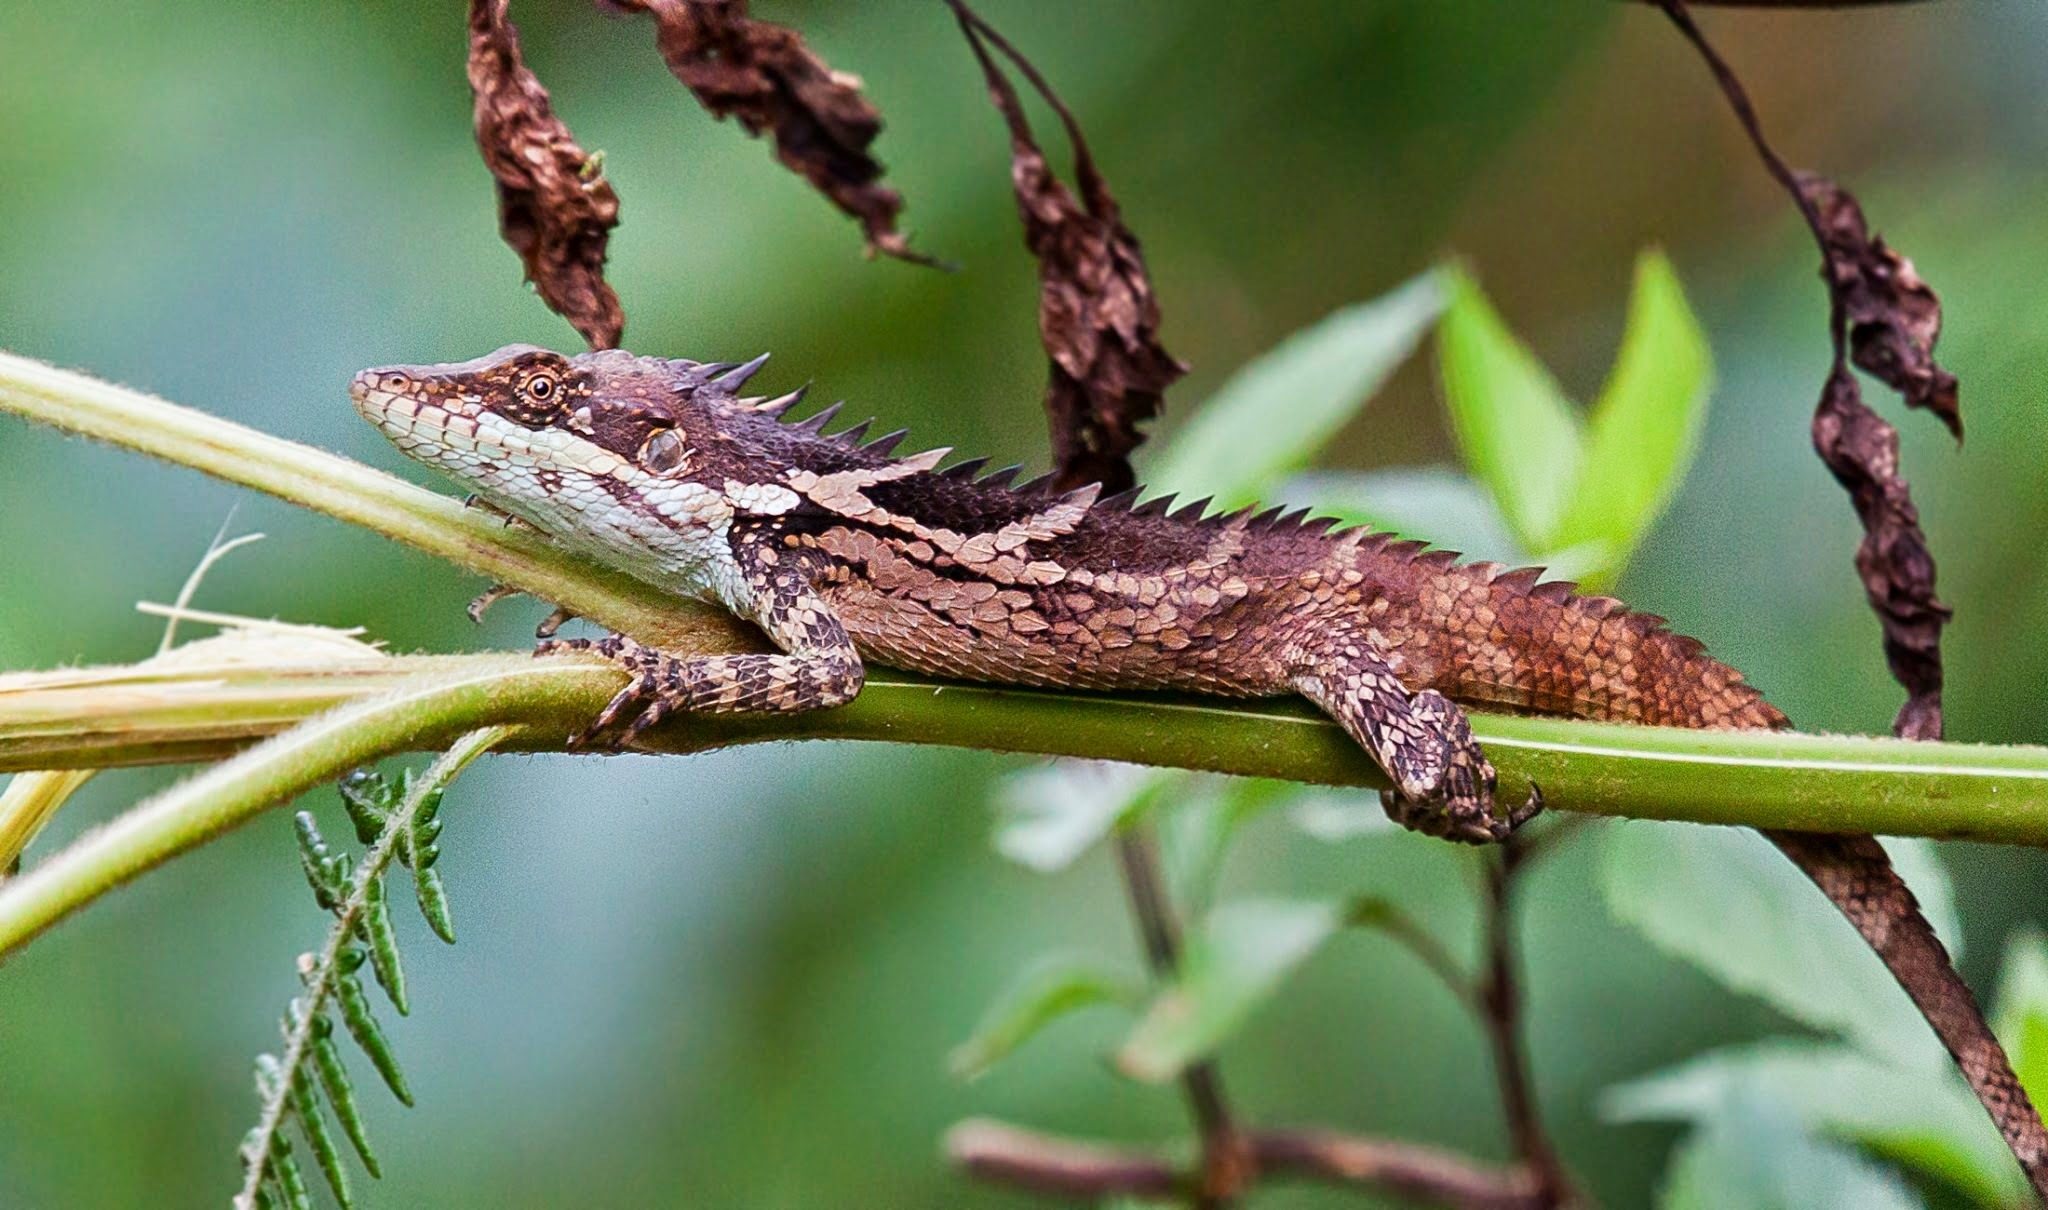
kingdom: Animalia
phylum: Chordata
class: Squamata
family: Agamidae
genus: Salea
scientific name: Salea anamallayana
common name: Anaimalai spiny lizard
